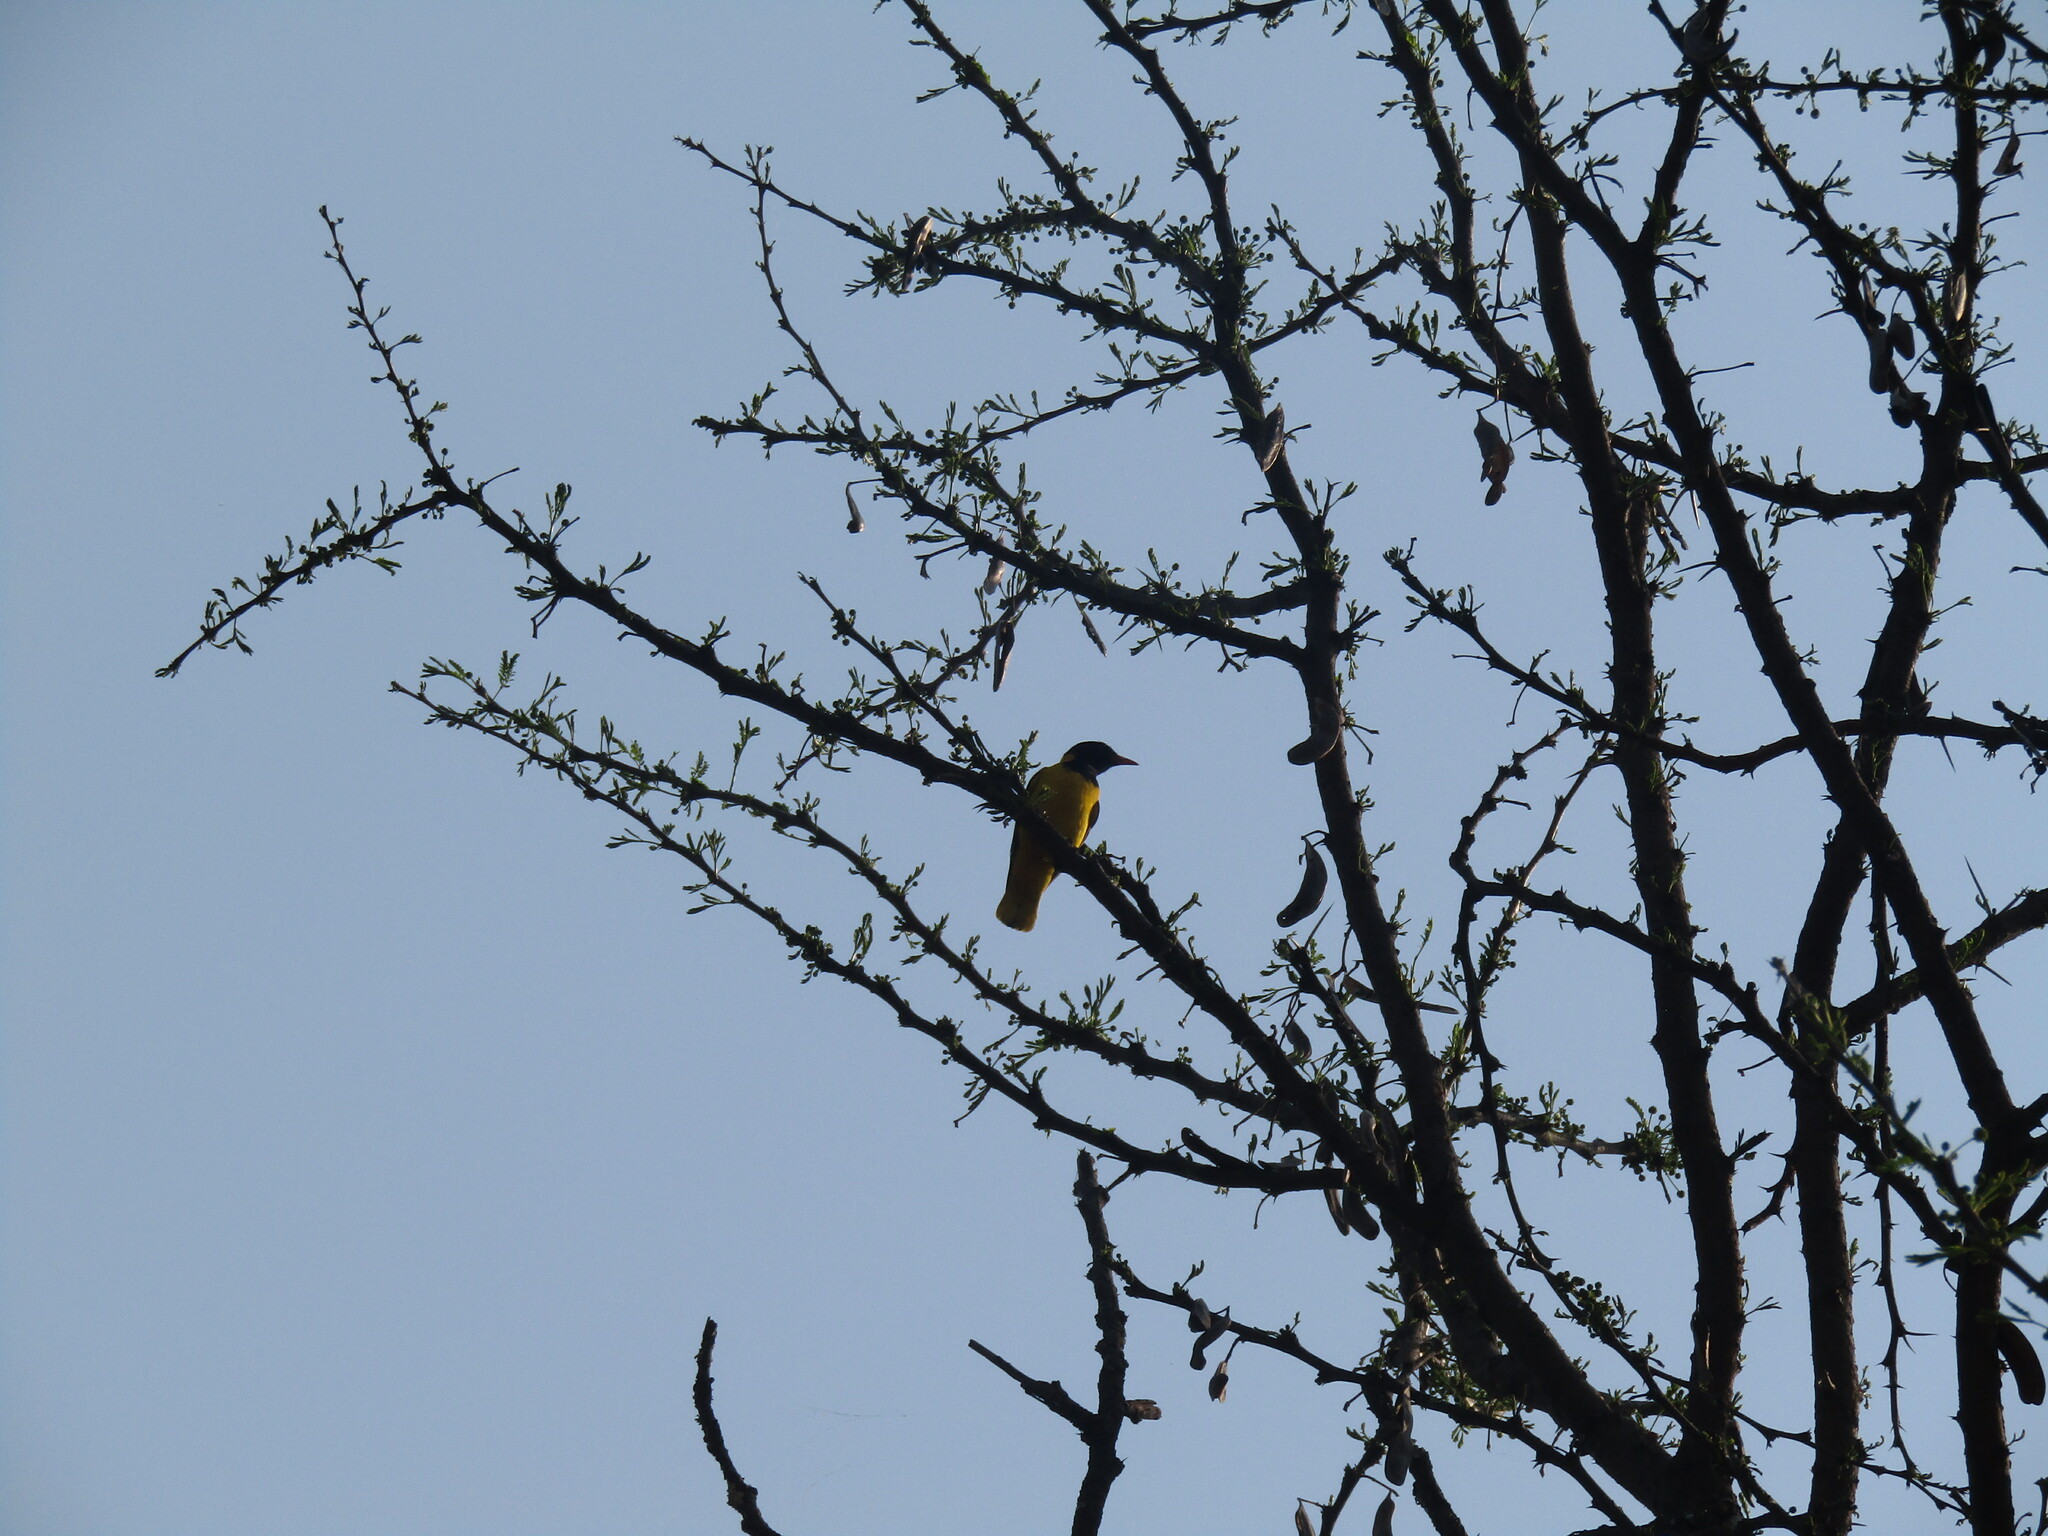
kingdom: Animalia
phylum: Chordata
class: Aves
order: Passeriformes
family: Oriolidae
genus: Oriolus
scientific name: Oriolus larvatus
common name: Black-headed oriole
